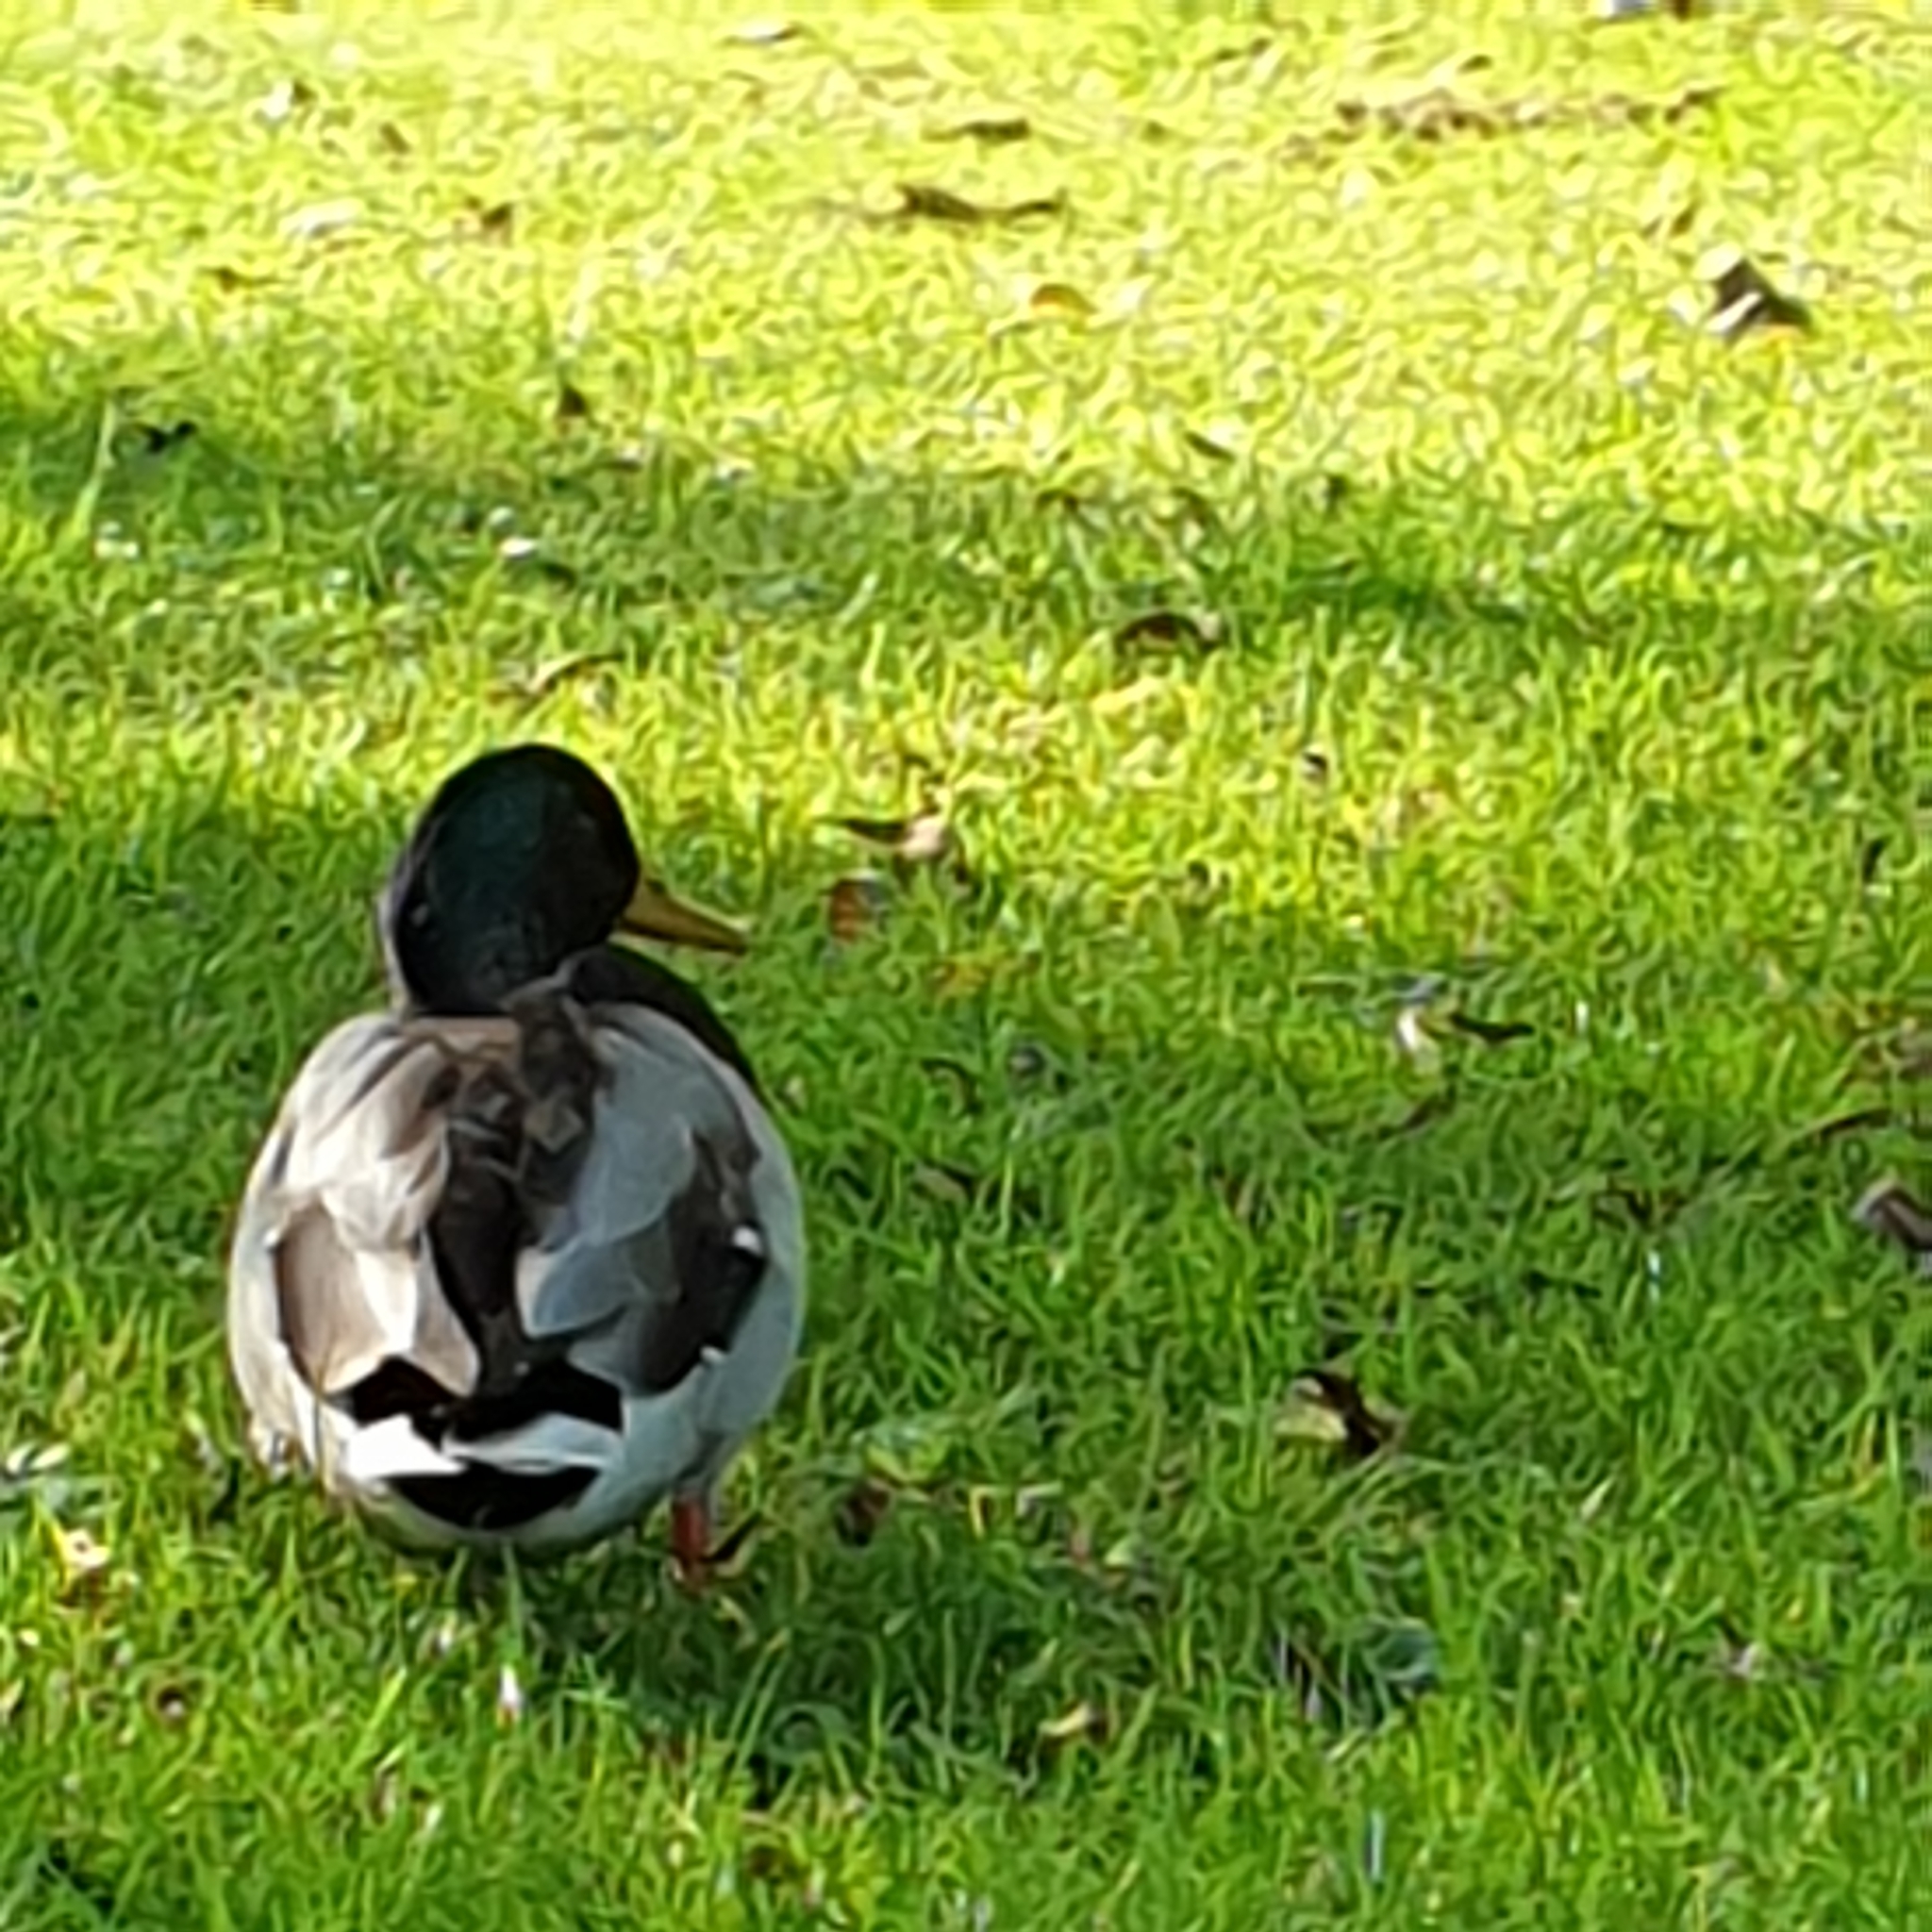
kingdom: Animalia
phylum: Chordata
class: Aves
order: Anseriformes
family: Anatidae
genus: Anas
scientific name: Anas platyrhynchos
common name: Mallard
